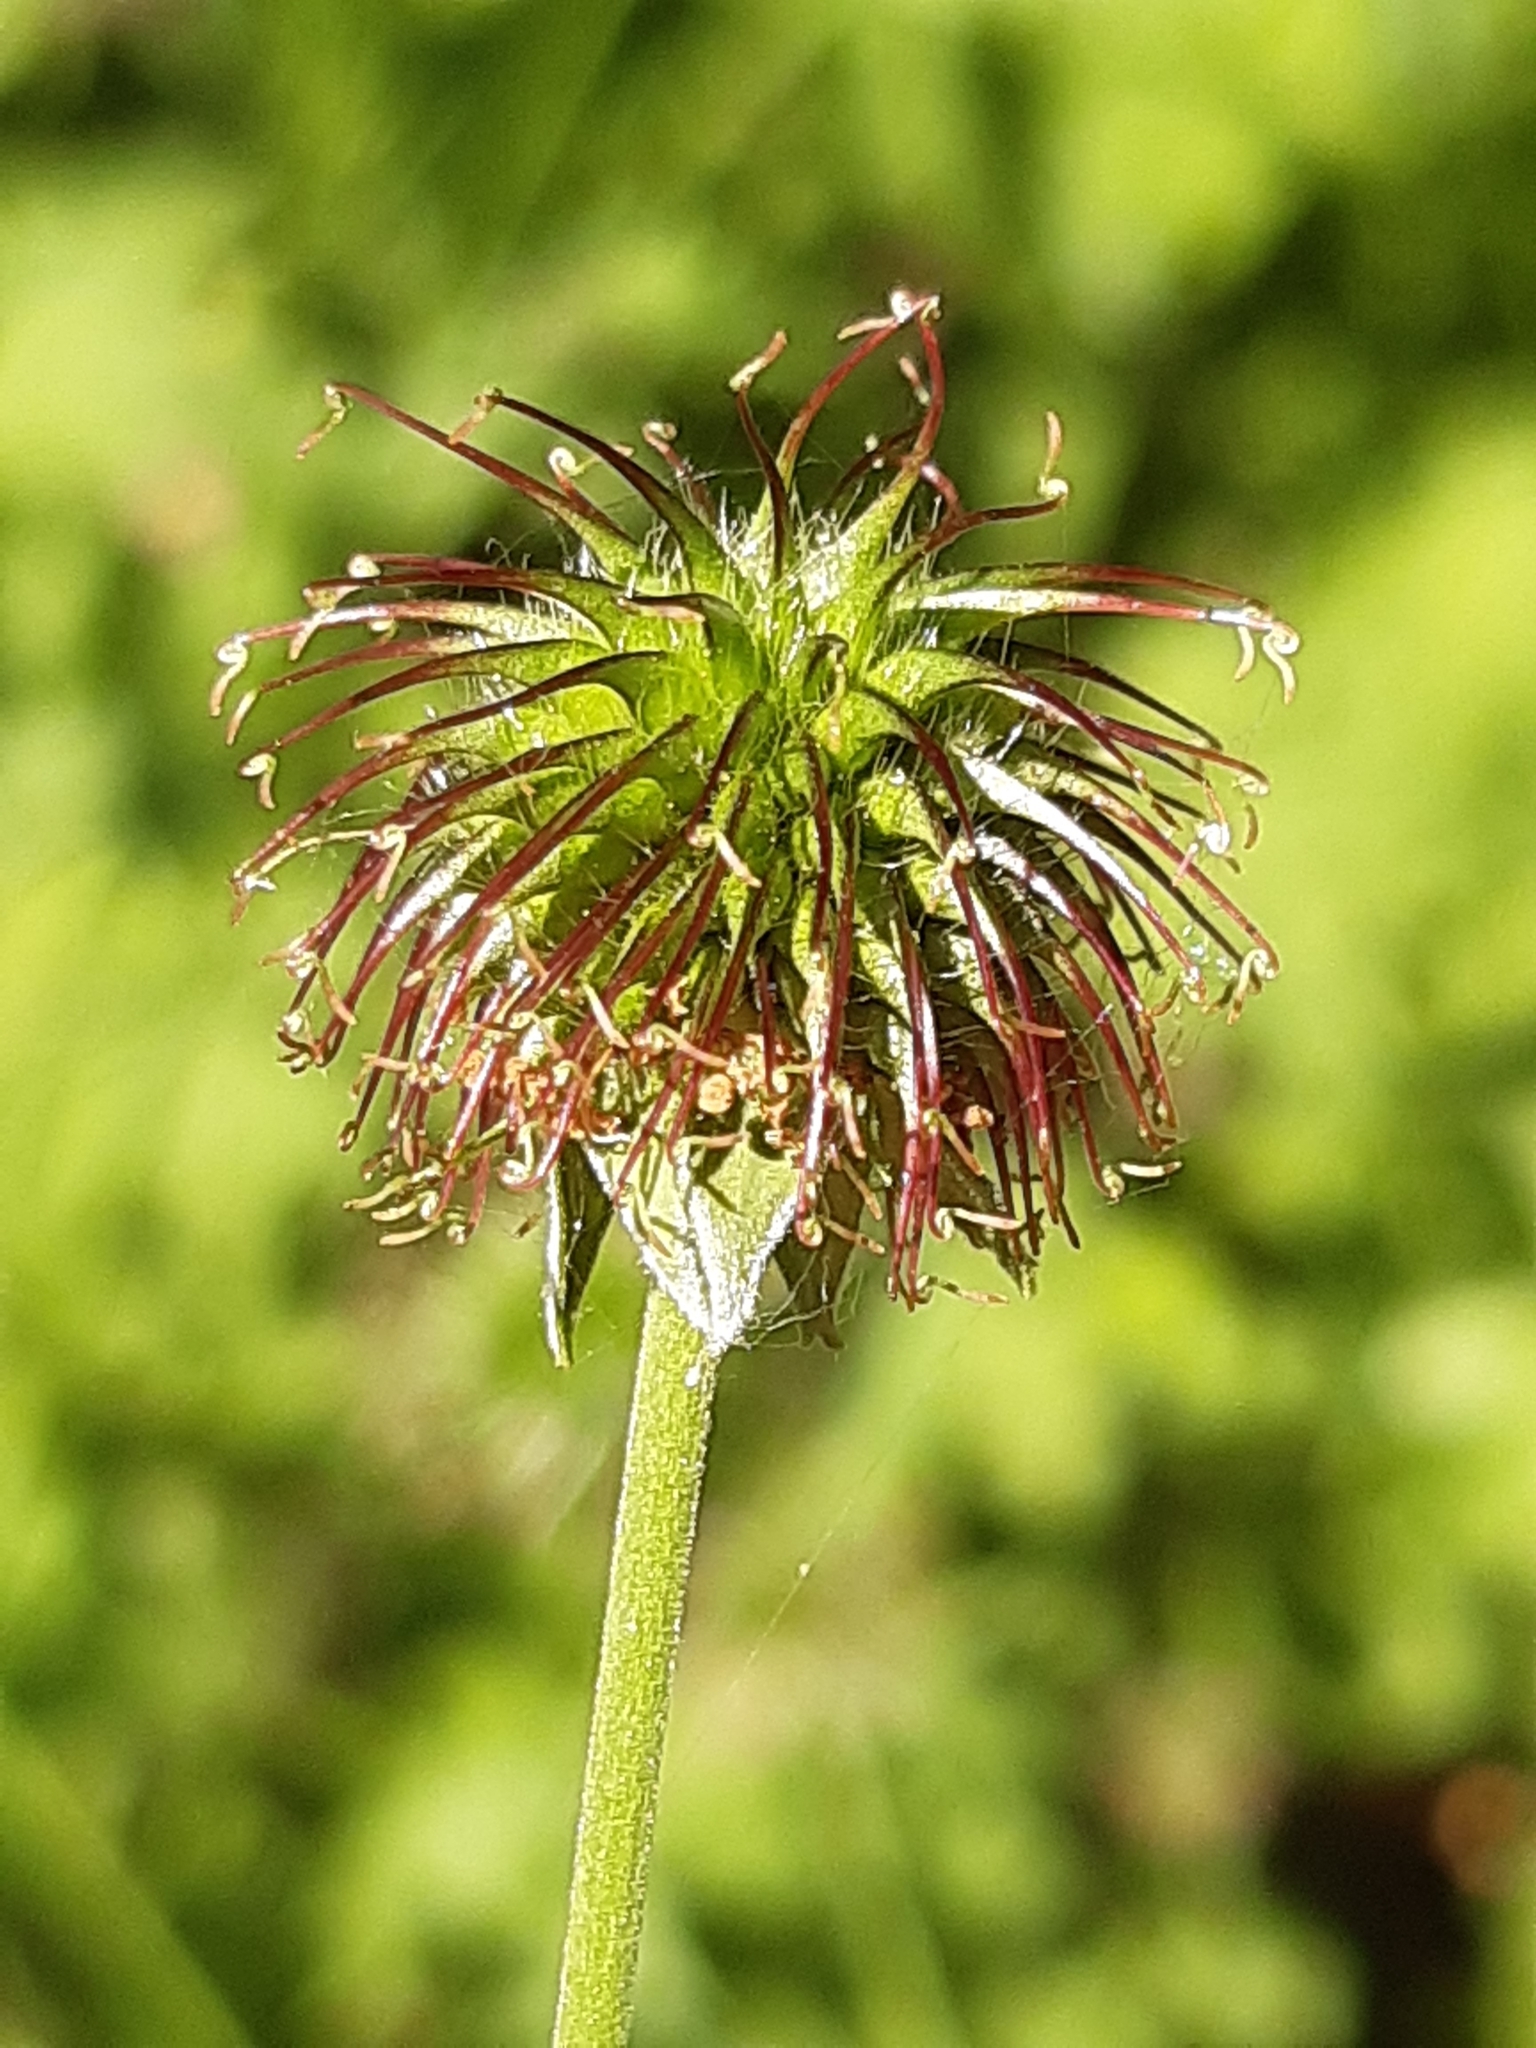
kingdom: Plantae
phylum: Tracheophyta
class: Magnoliopsida
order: Rosales
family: Rosaceae
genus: Geum
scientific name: Geum urbanum
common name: Wood avens
